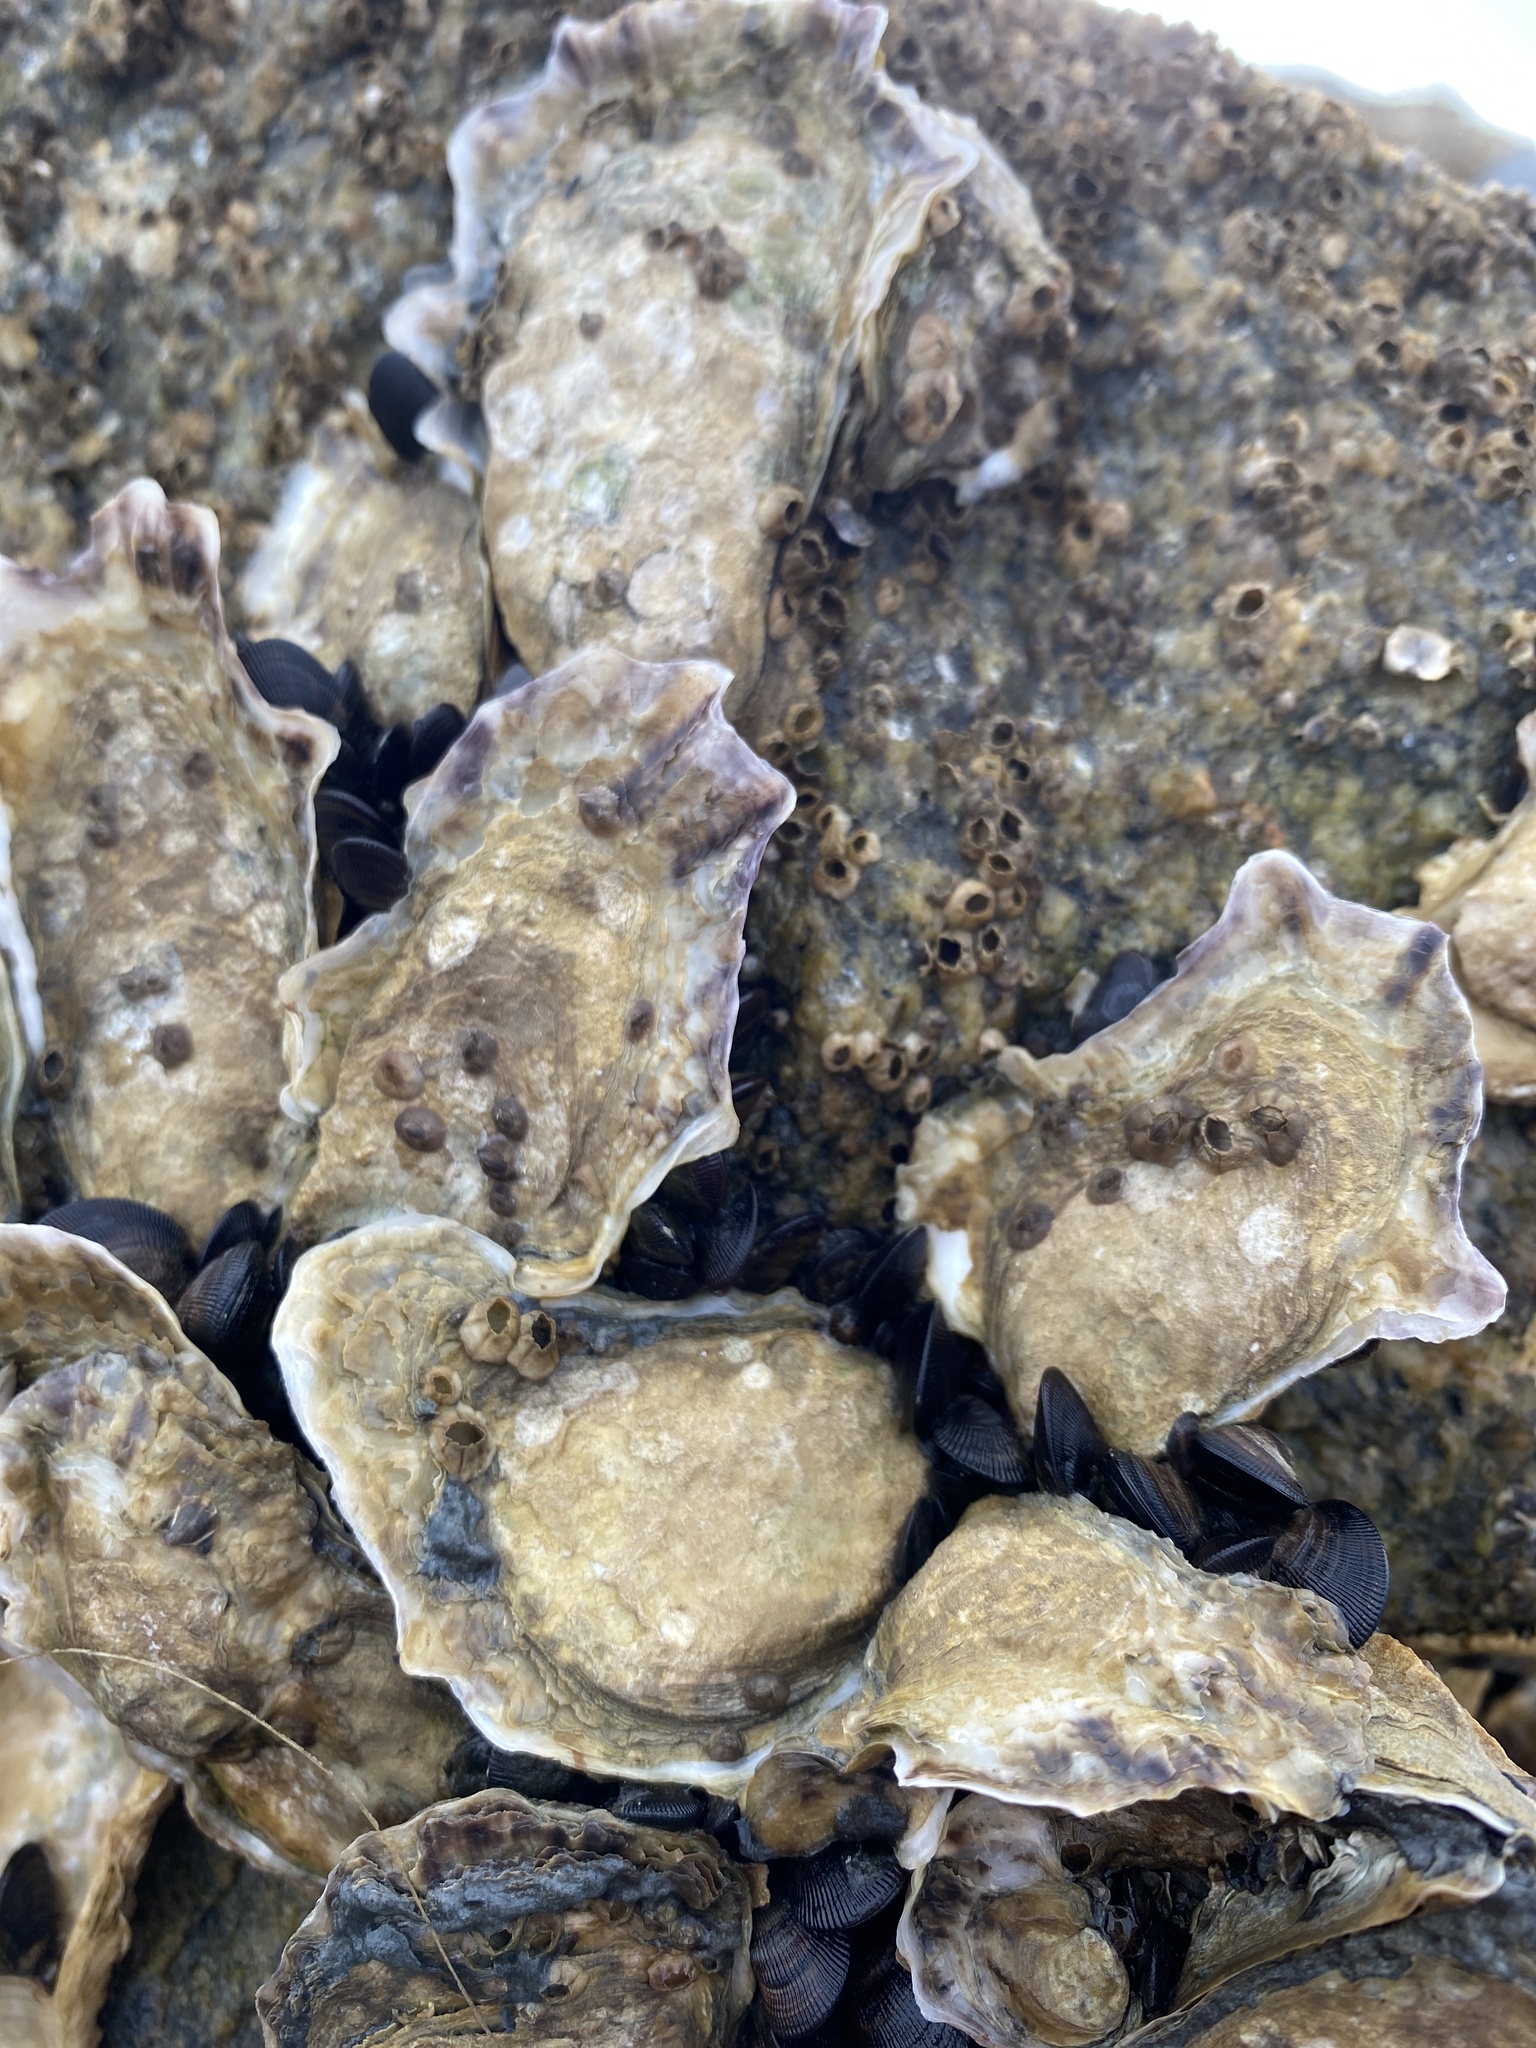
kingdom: Animalia
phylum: Mollusca
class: Bivalvia
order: Ostreida
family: Ostreidae
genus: Crassostrea
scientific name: Crassostrea virginica
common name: American oyster
